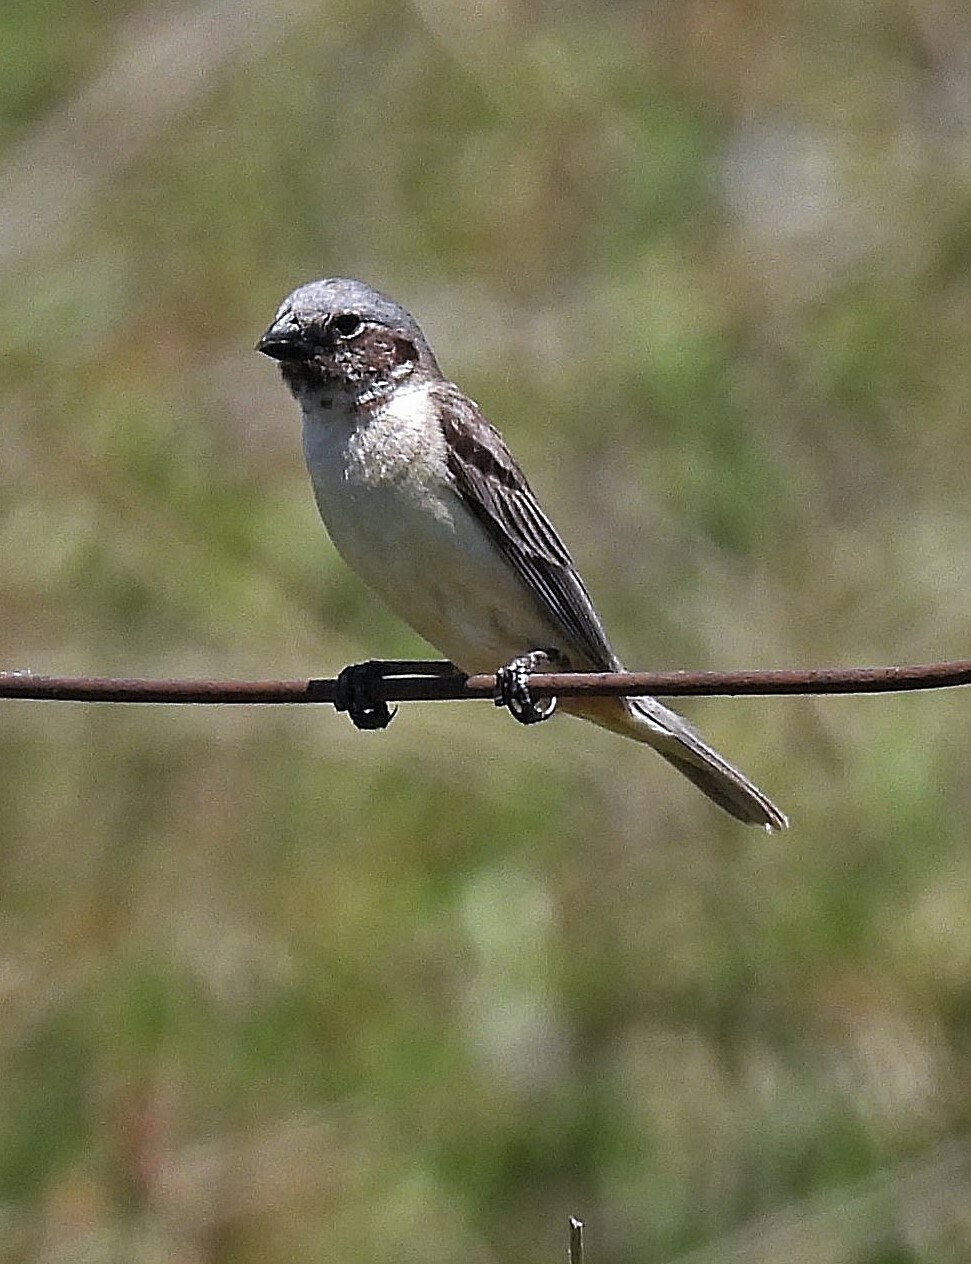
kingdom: Animalia
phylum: Chordata
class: Aves
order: Passeriformes
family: Thraupidae
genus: Sporophila
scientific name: Sporophila iberaensis
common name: Ibera seedeater
